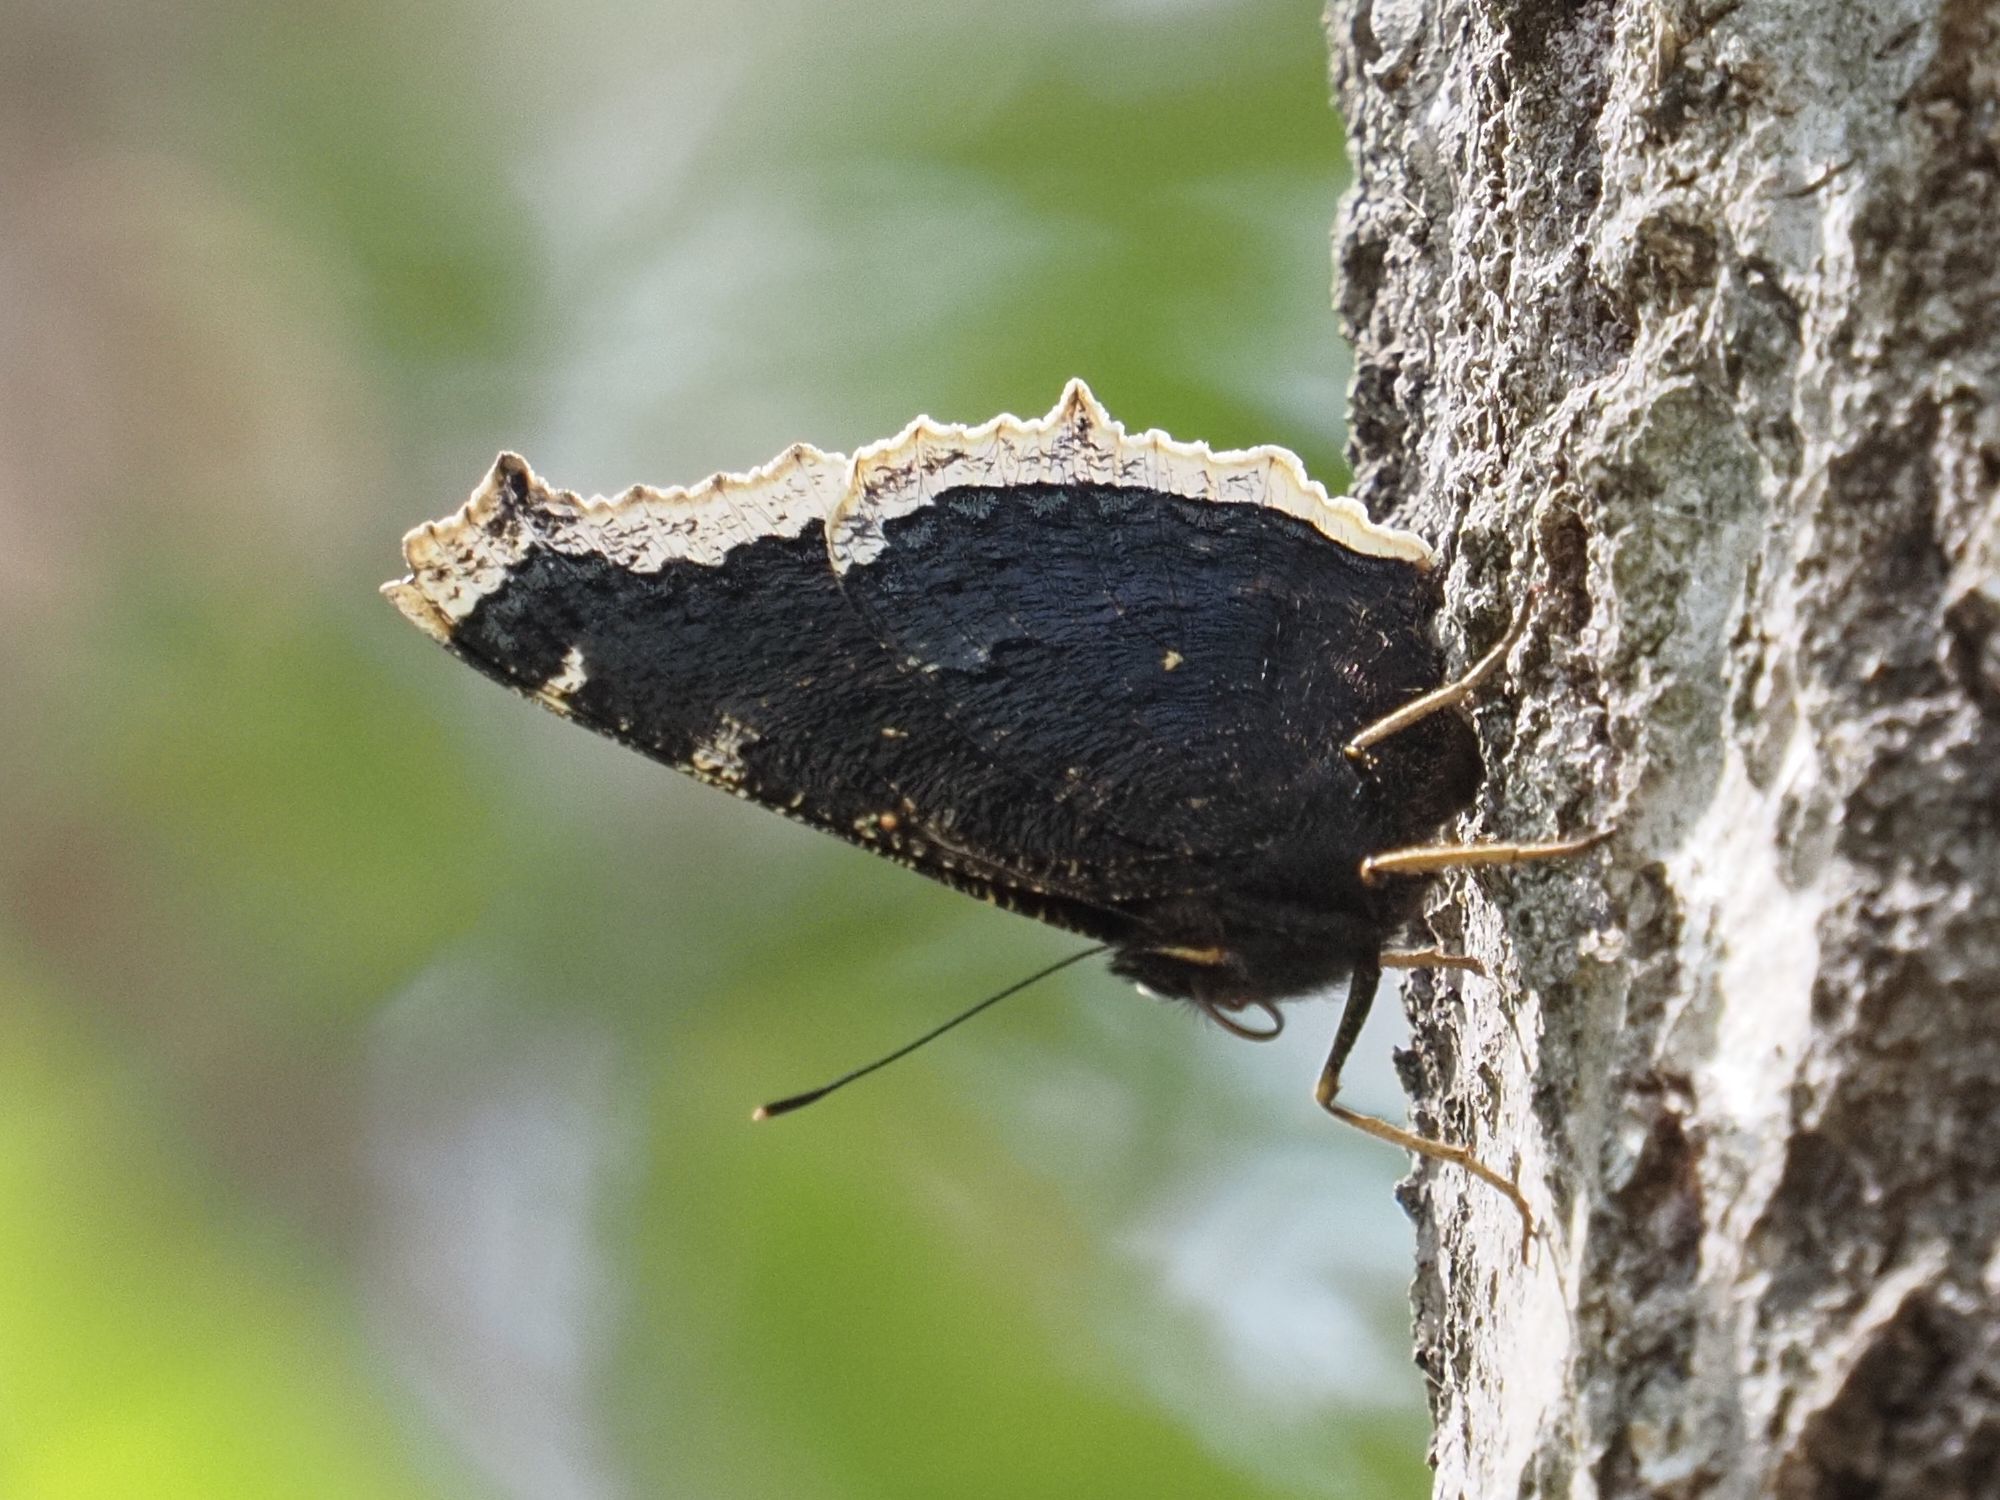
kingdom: Animalia
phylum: Arthropoda
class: Insecta
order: Lepidoptera
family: Nymphalidae
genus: Nymphalis
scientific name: Nymphalis antiopa
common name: Camberwell beauty
